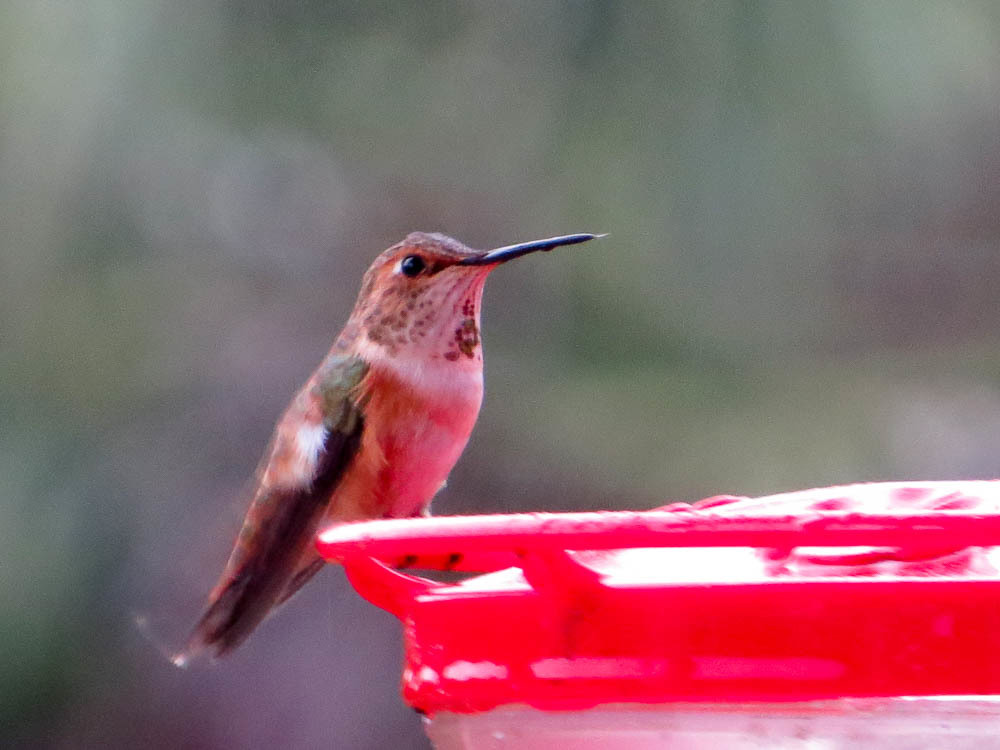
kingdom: Animalia
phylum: Chordata
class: Aves
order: Apodiformes
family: Trochilidae
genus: Selasphorus
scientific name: Selasphorus rufus
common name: Rufous hummingbird
